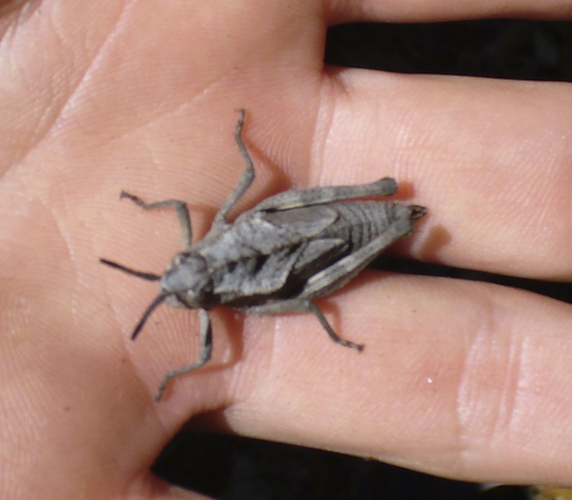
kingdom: Animalia
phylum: Arthropoda
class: Insecta
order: Orthoptera
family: Romaleidae
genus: Dracotettix
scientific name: Dracotettix monstrosus
